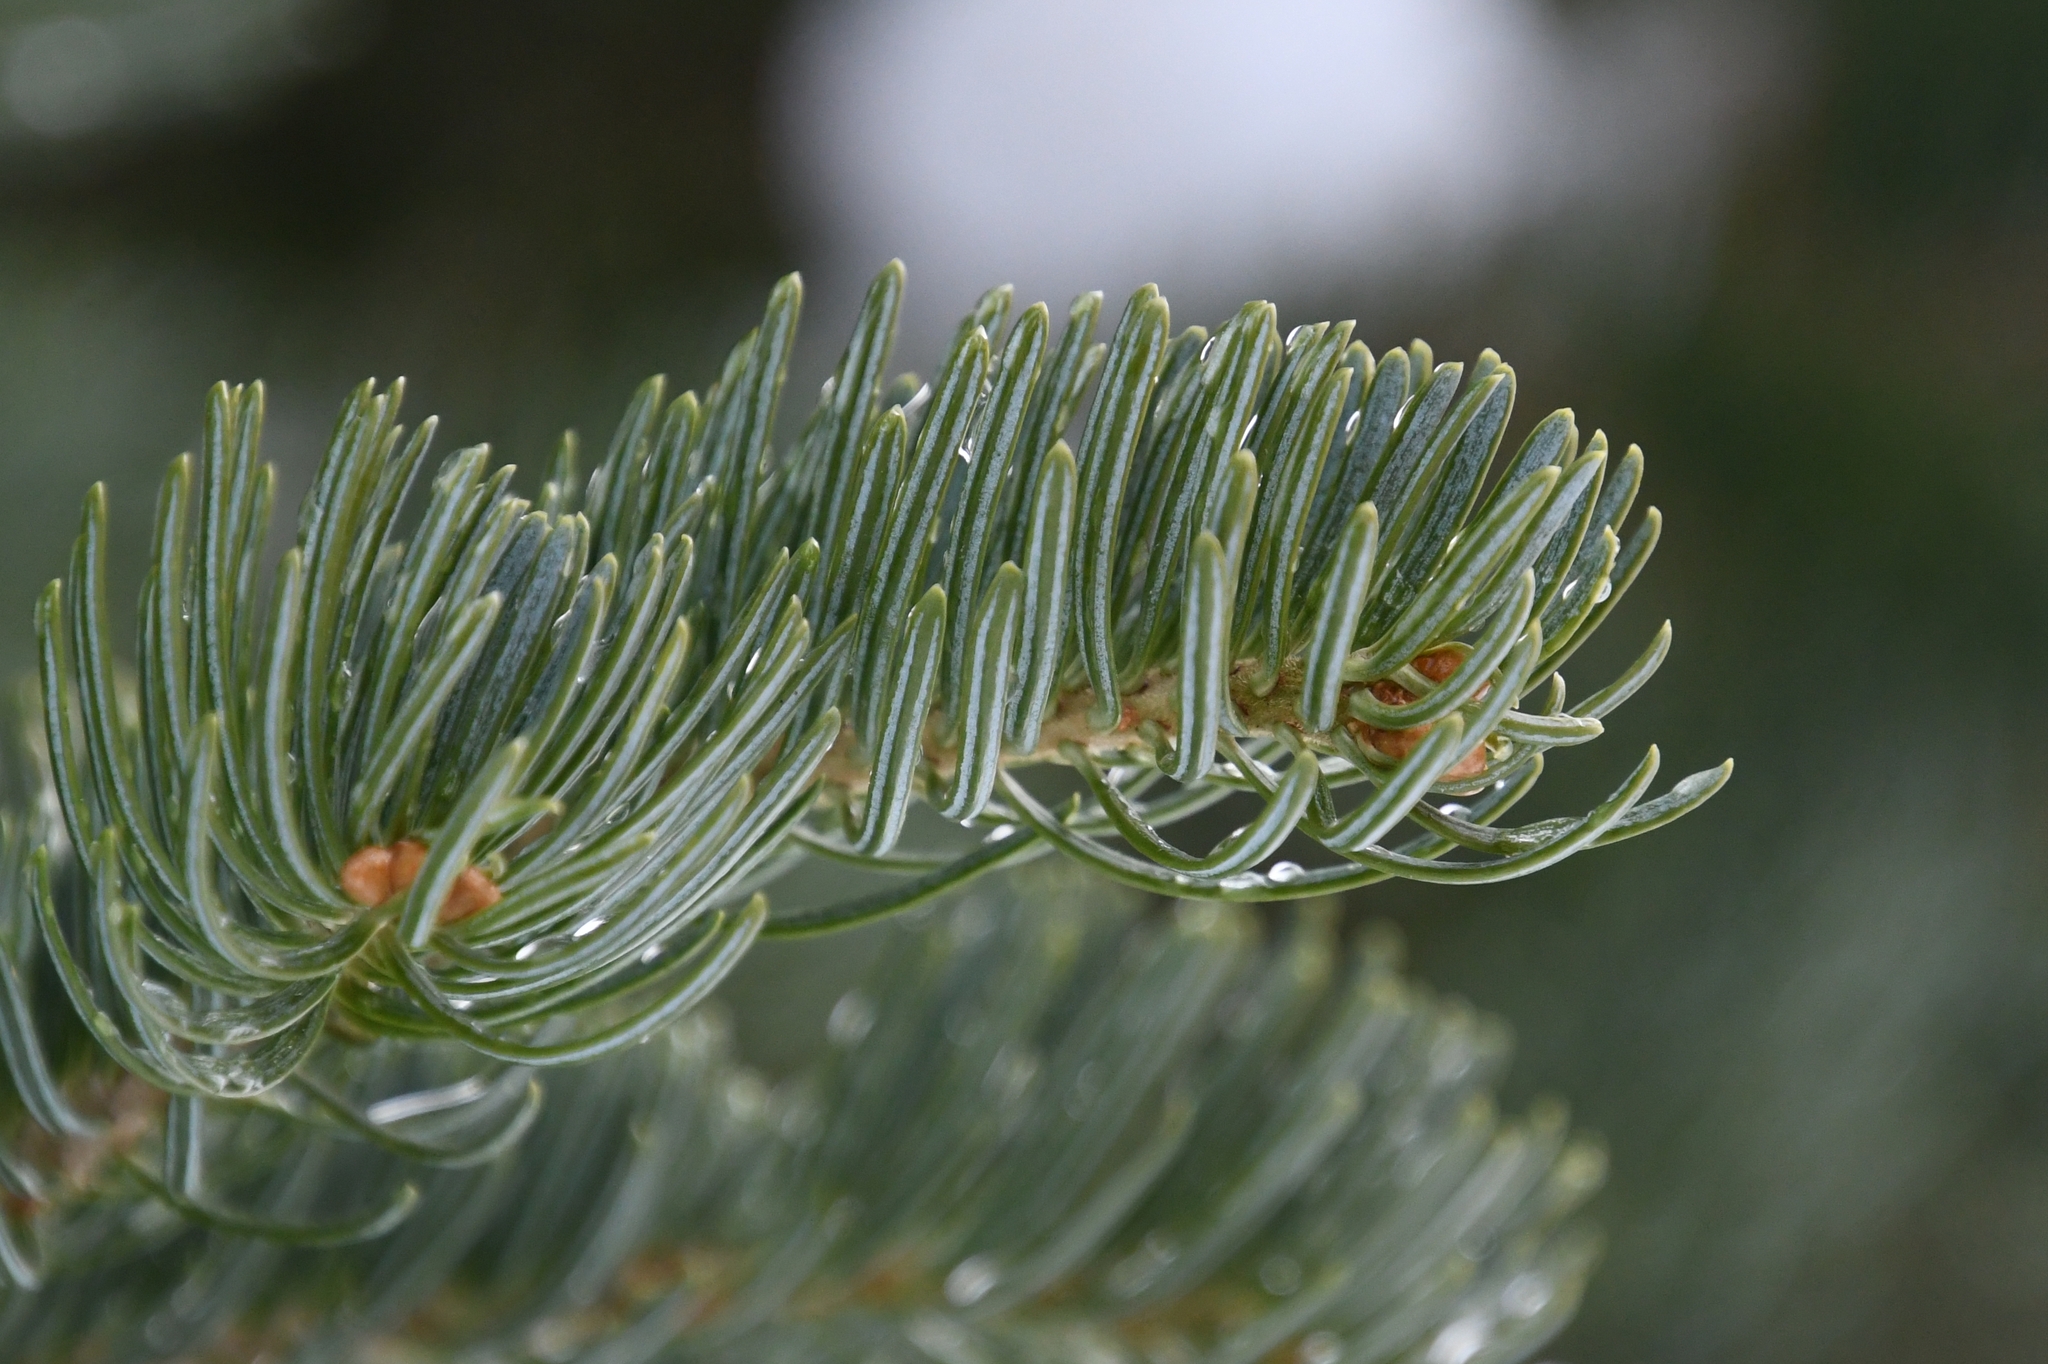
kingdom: Plantae
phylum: Tracheophyta
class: Pinopsida
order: Pinales
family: Pinaceae
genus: Abies
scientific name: Abies lasiocarpa
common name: Subalpine fir
